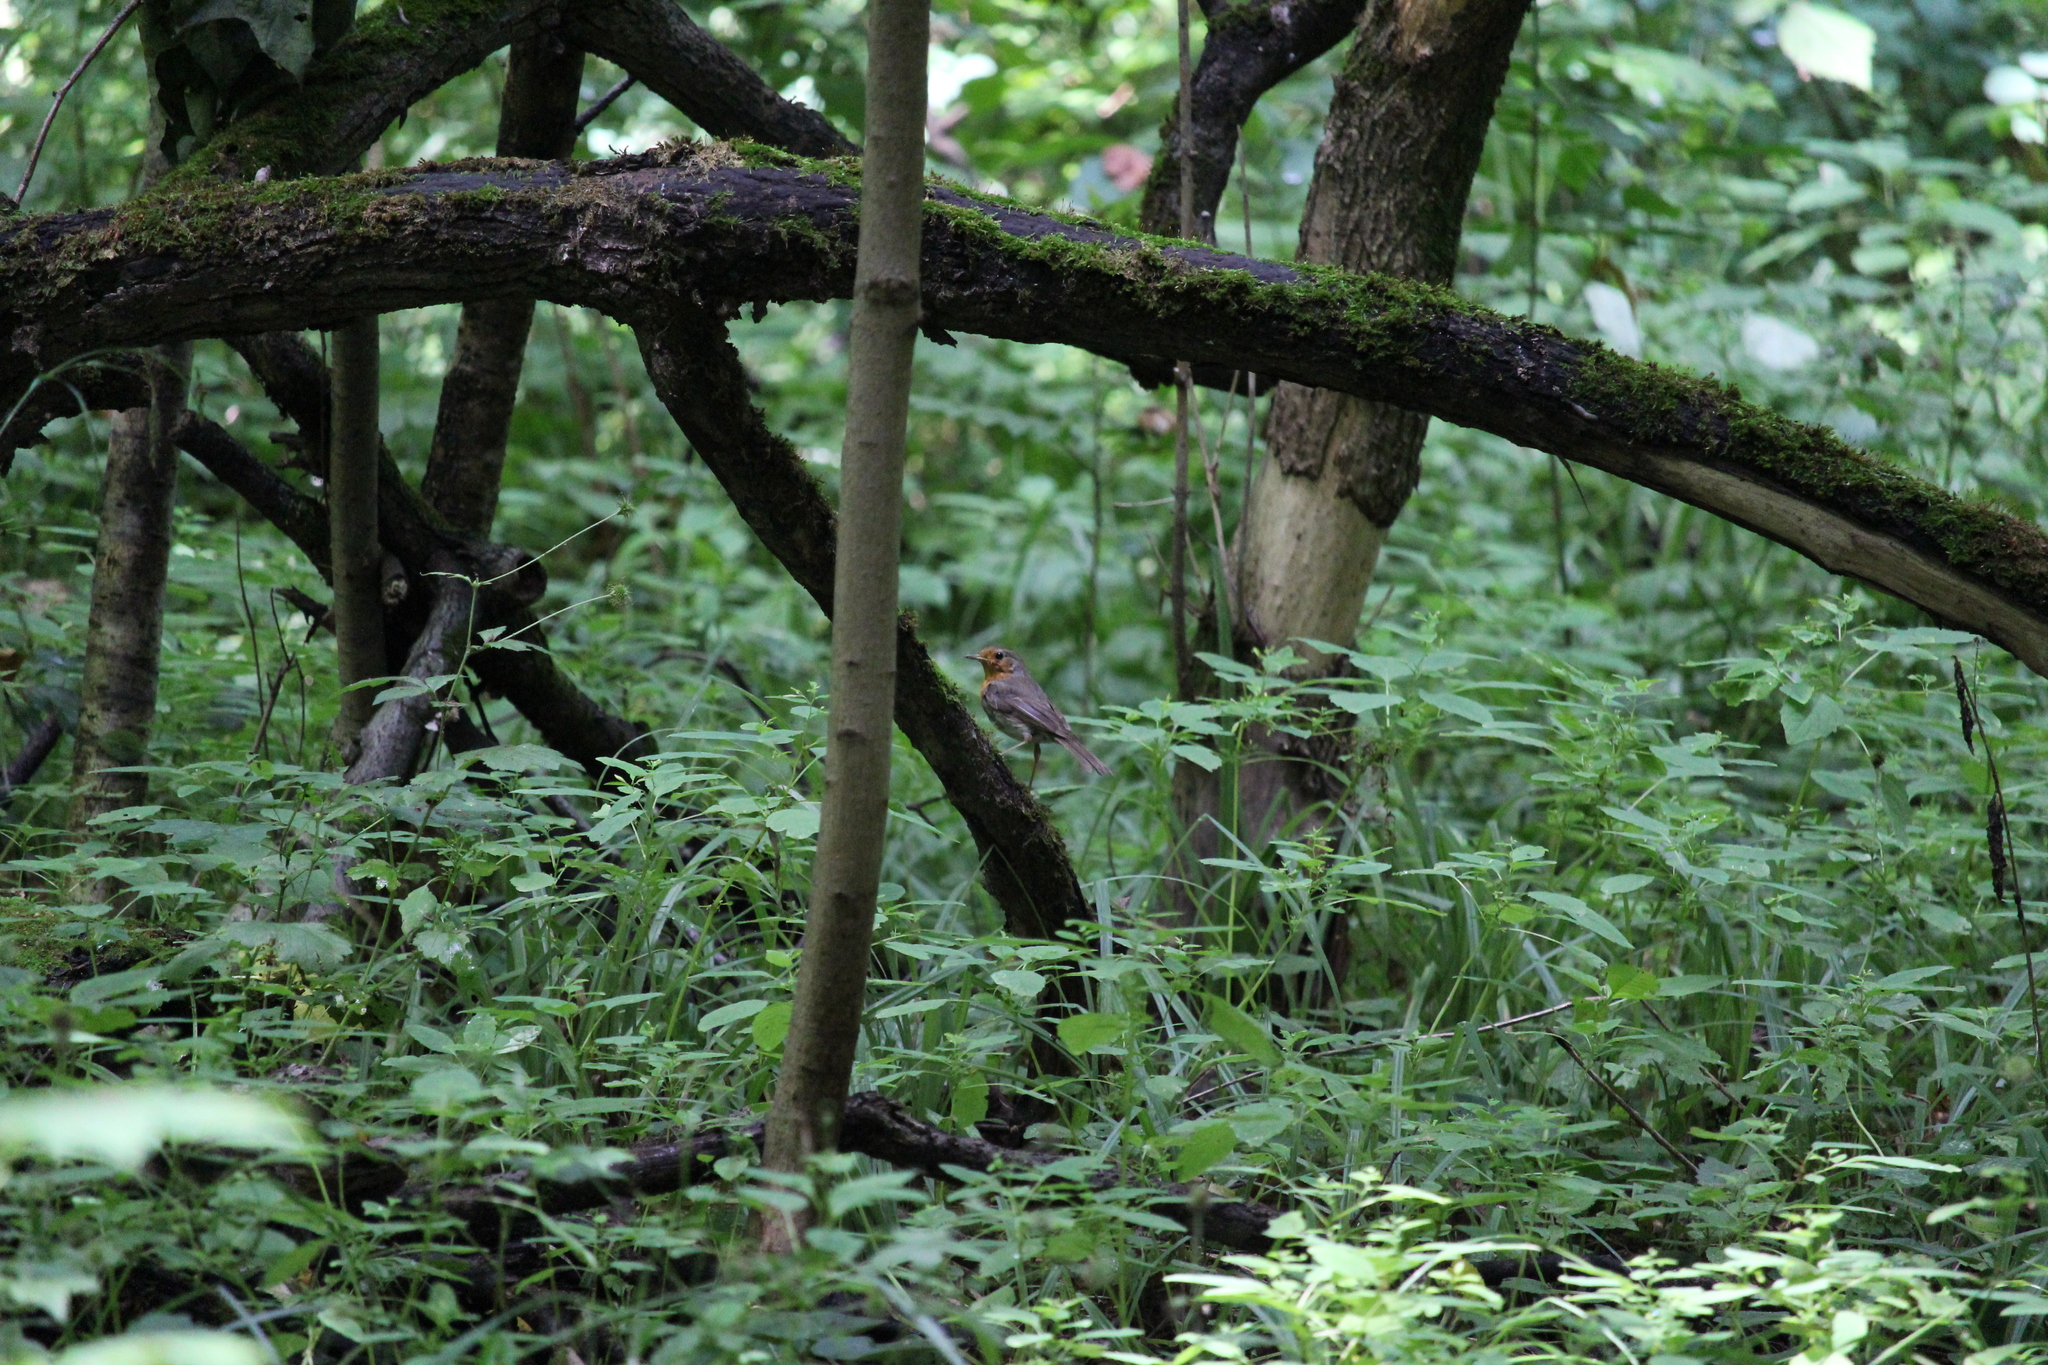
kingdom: Animalia
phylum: Chordata
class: Aves
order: Passeriformes
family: Muscicapidae
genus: Erithacus
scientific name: Erithacus rubecula
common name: European robin
